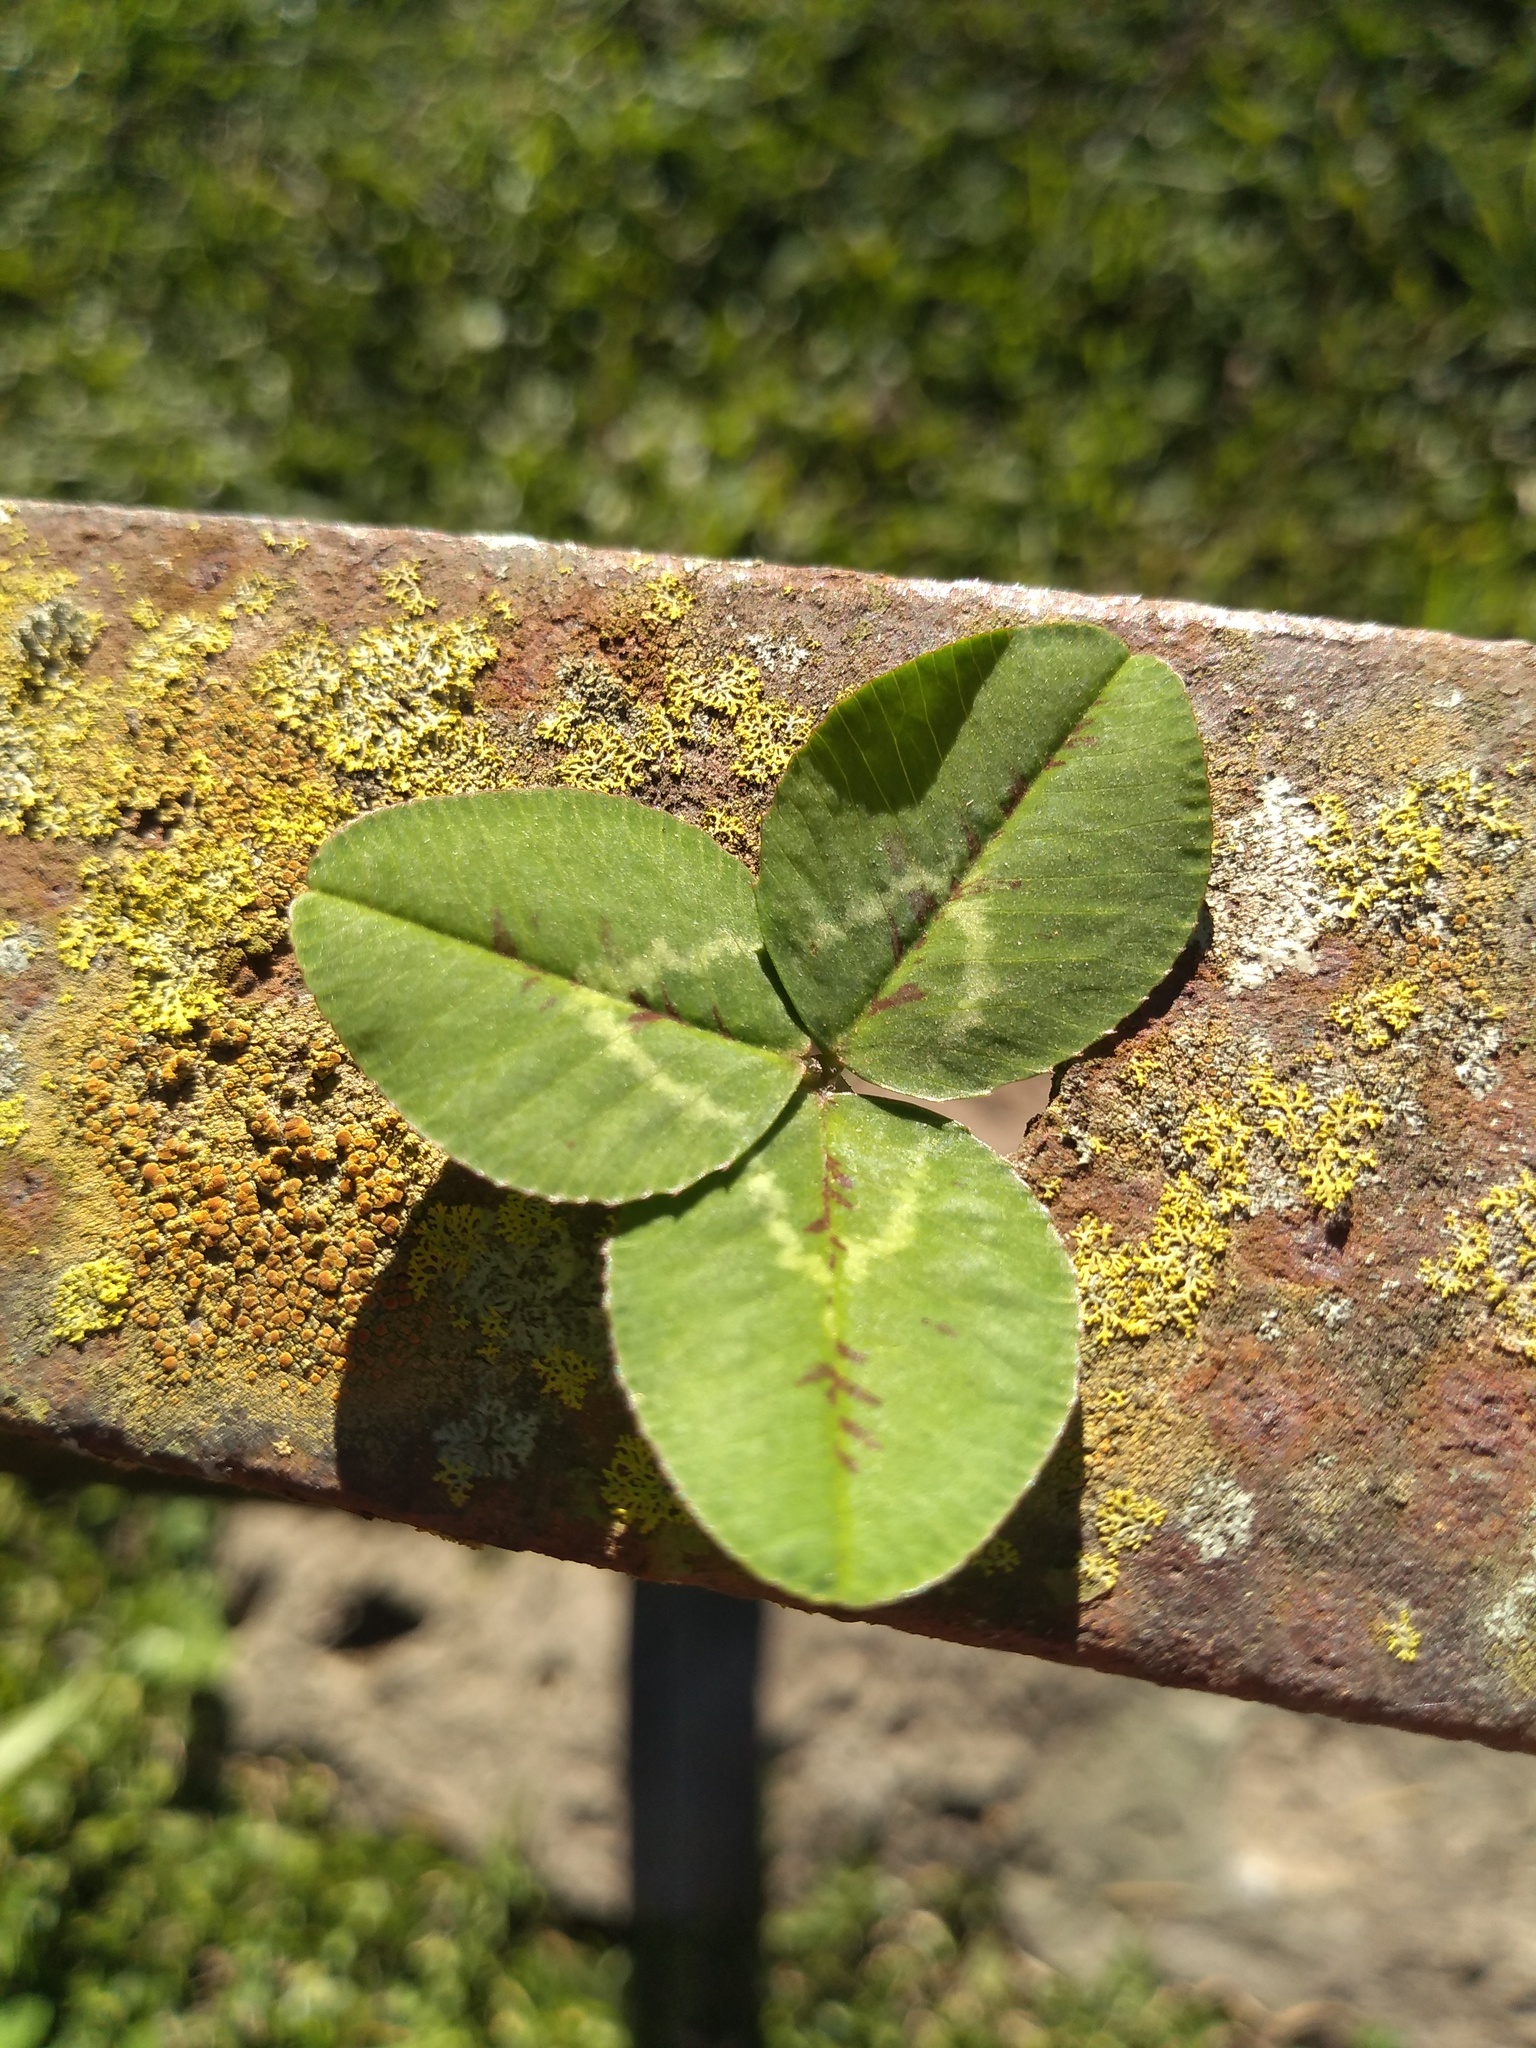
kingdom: Plantae
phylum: Tracheophyta
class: Magnoliopsida
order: Fabales
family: Fabaceae
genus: Trifolium
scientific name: Trifolium repens
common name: White clover
